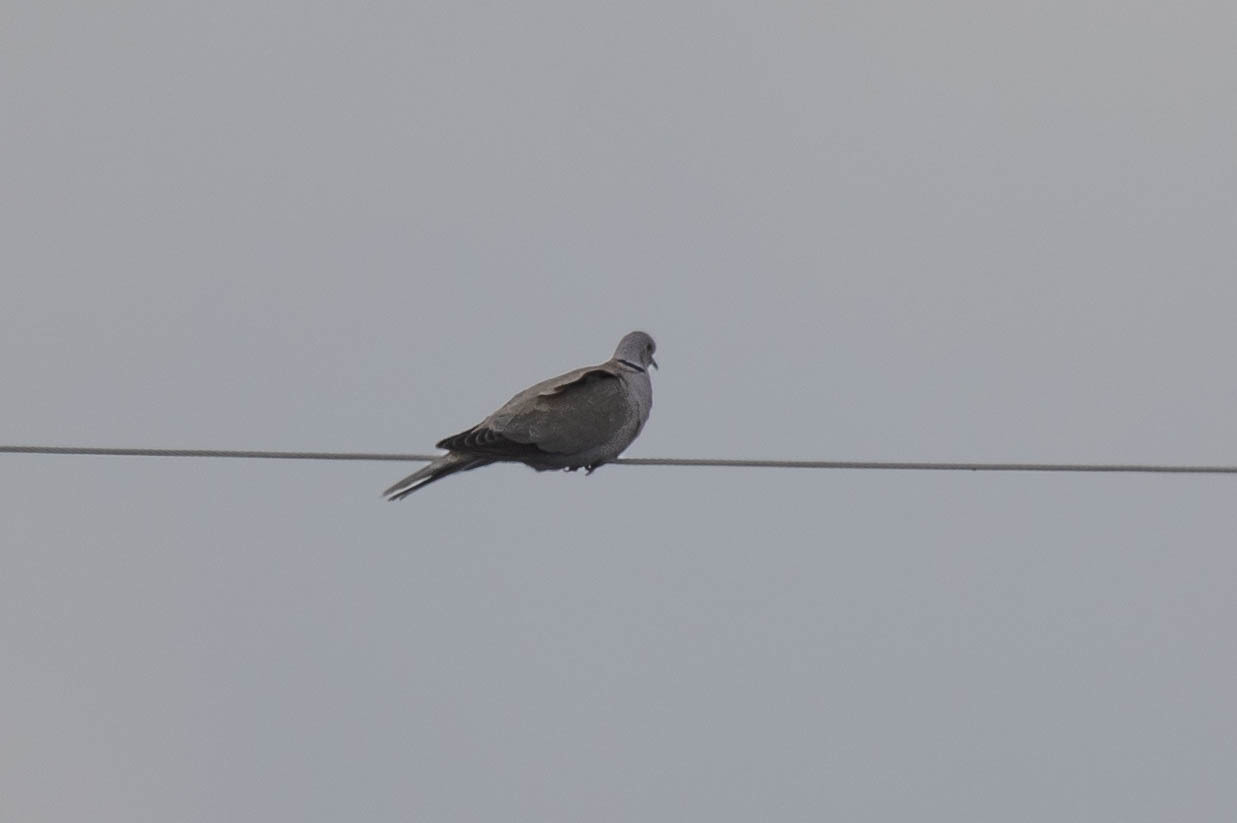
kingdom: Animalia
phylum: Chordata
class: Aves
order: Columbiformes
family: Columbidae
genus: Streptopelia
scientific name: Streptopelia decaocto
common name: Eurasian collared dove
